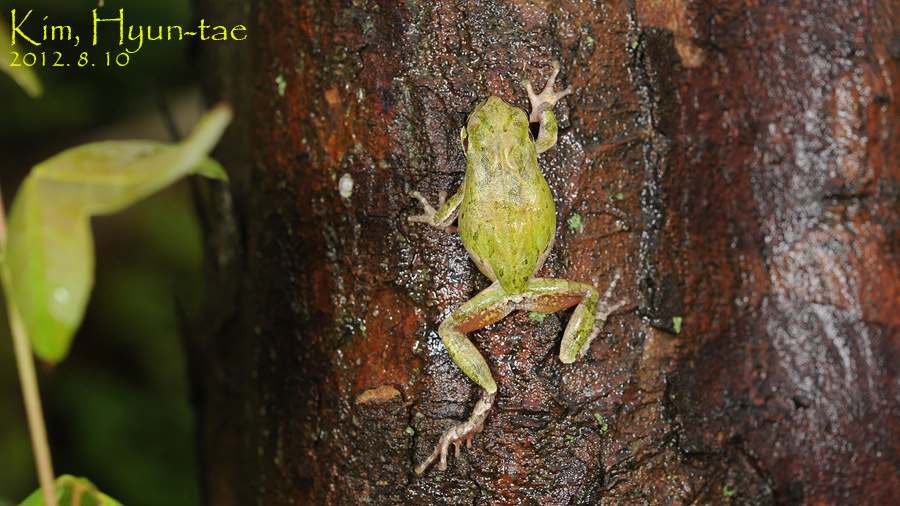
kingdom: Animalia
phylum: Chordata
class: Amphibia
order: Anura
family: Hylidae
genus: Dryophytes
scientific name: Dryophytes japonicus
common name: Japanese treefrog
